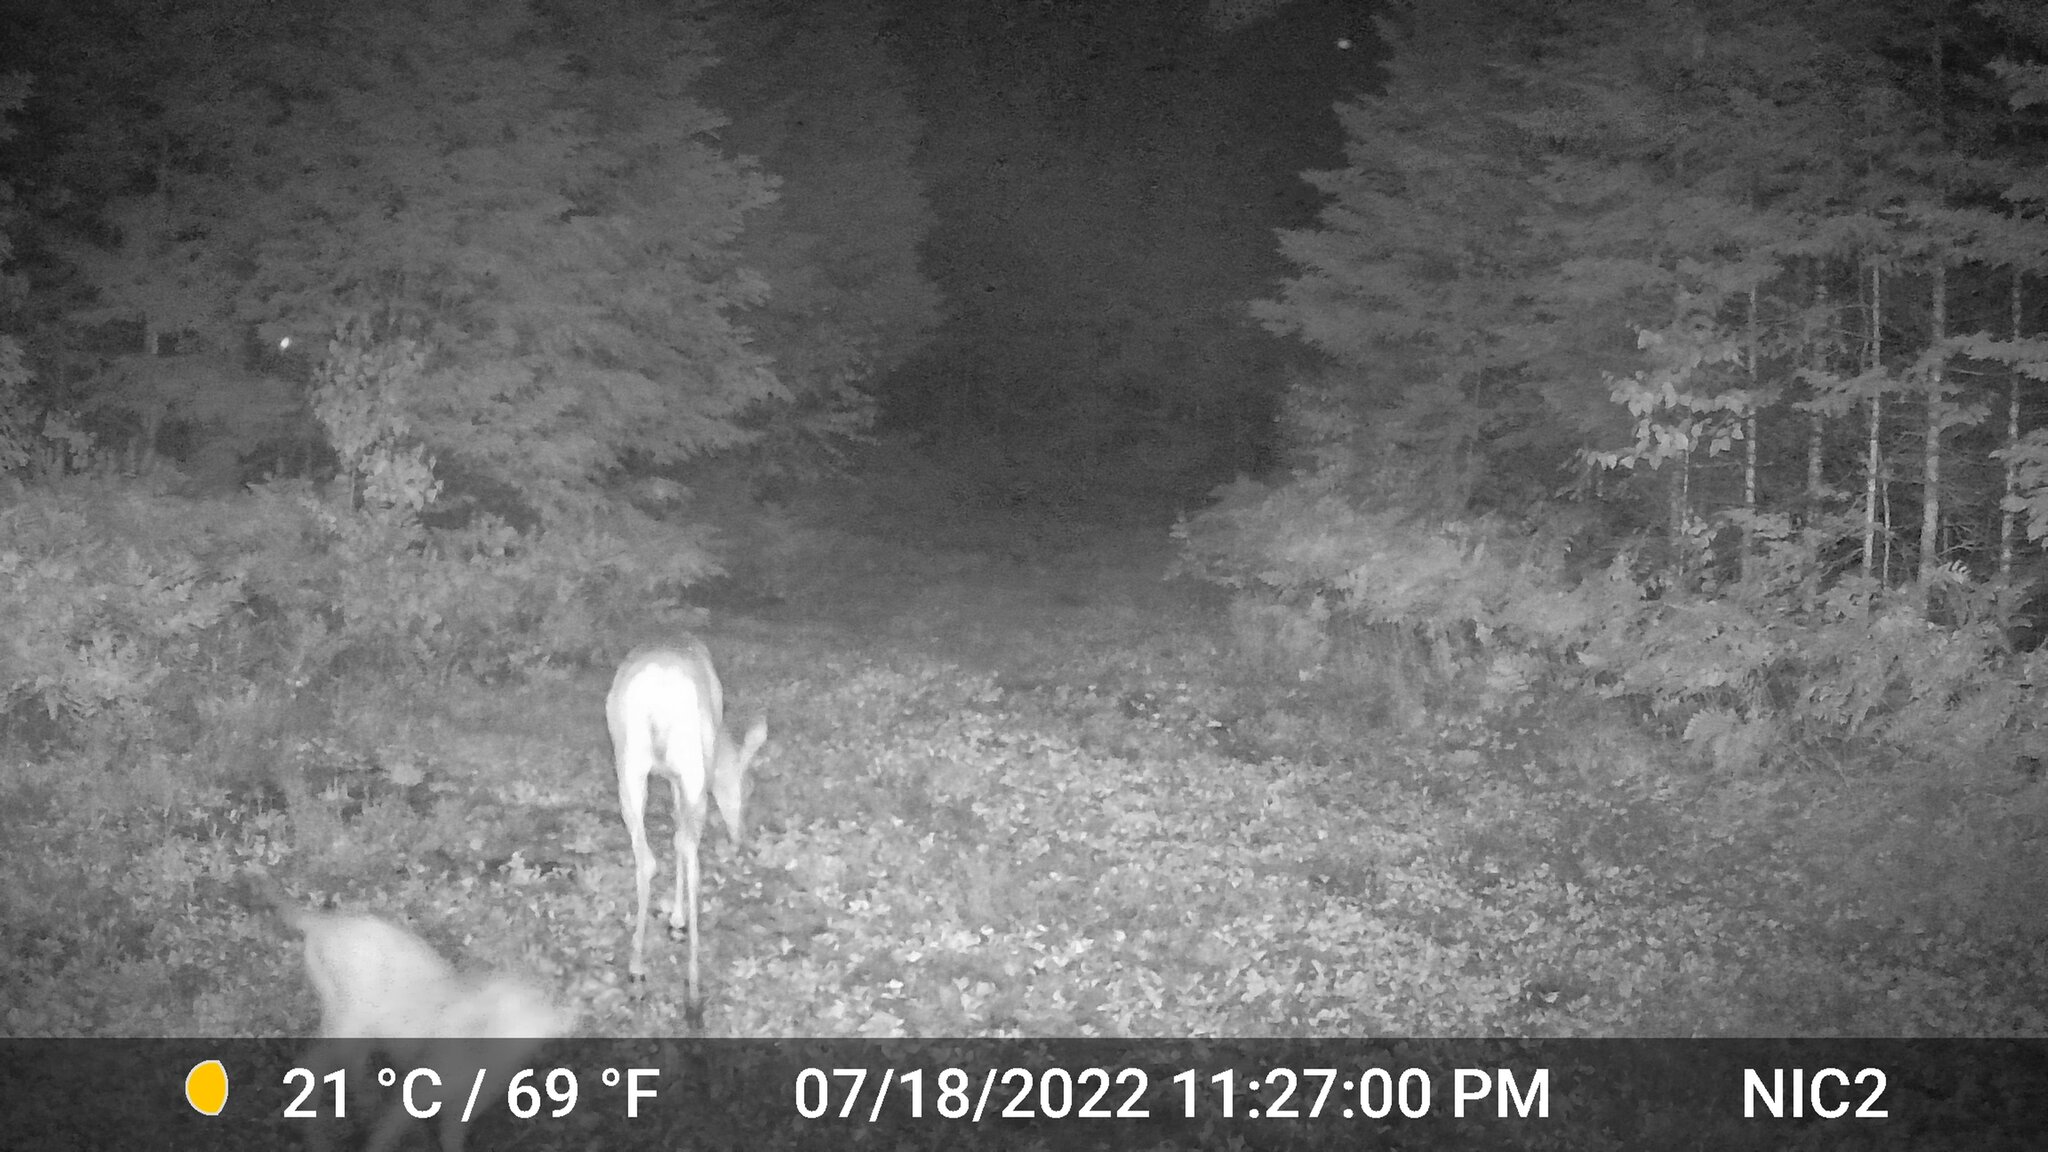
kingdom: Animalia
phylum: Chordata
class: Mammalia
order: Artiodactyla
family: Cervidae
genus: Odocoileus
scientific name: Odocoileus virginianus
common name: White-tailed deer
